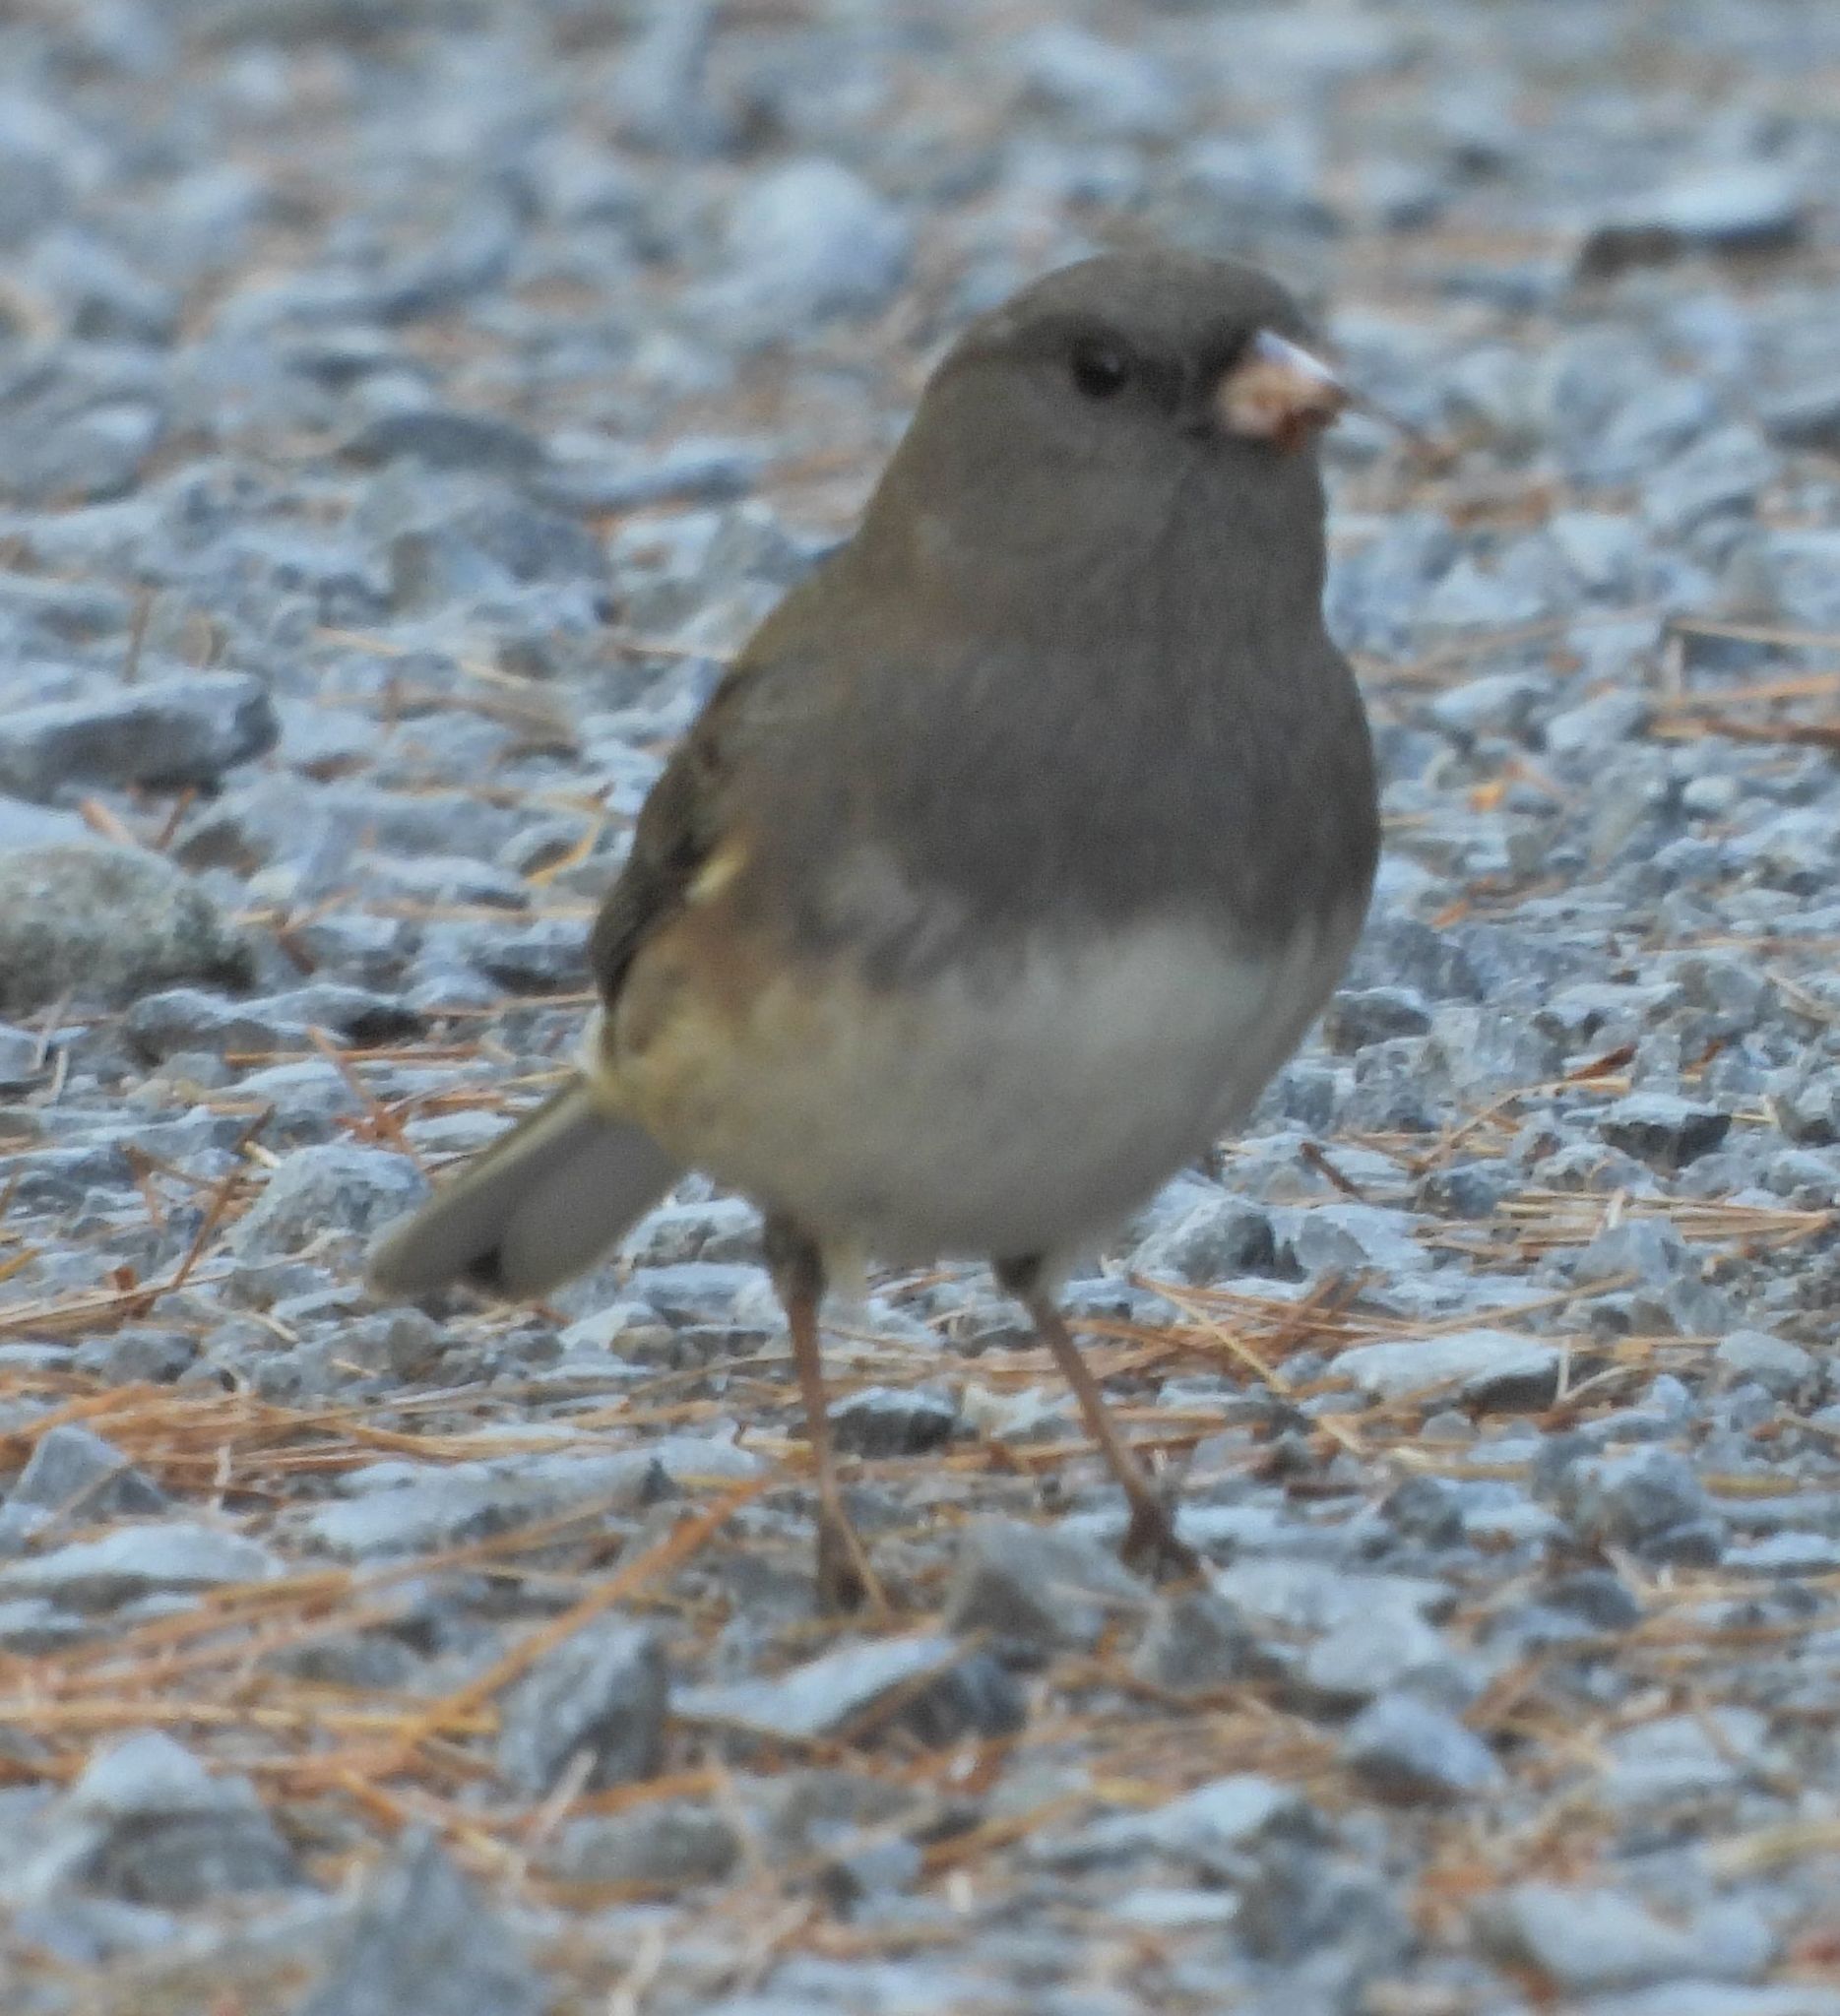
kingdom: Animalia
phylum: Chordata
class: Aves
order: Passeriformes
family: Passerellidae
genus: Junco
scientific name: Junco hyemalis
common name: Dark-eyed junco
